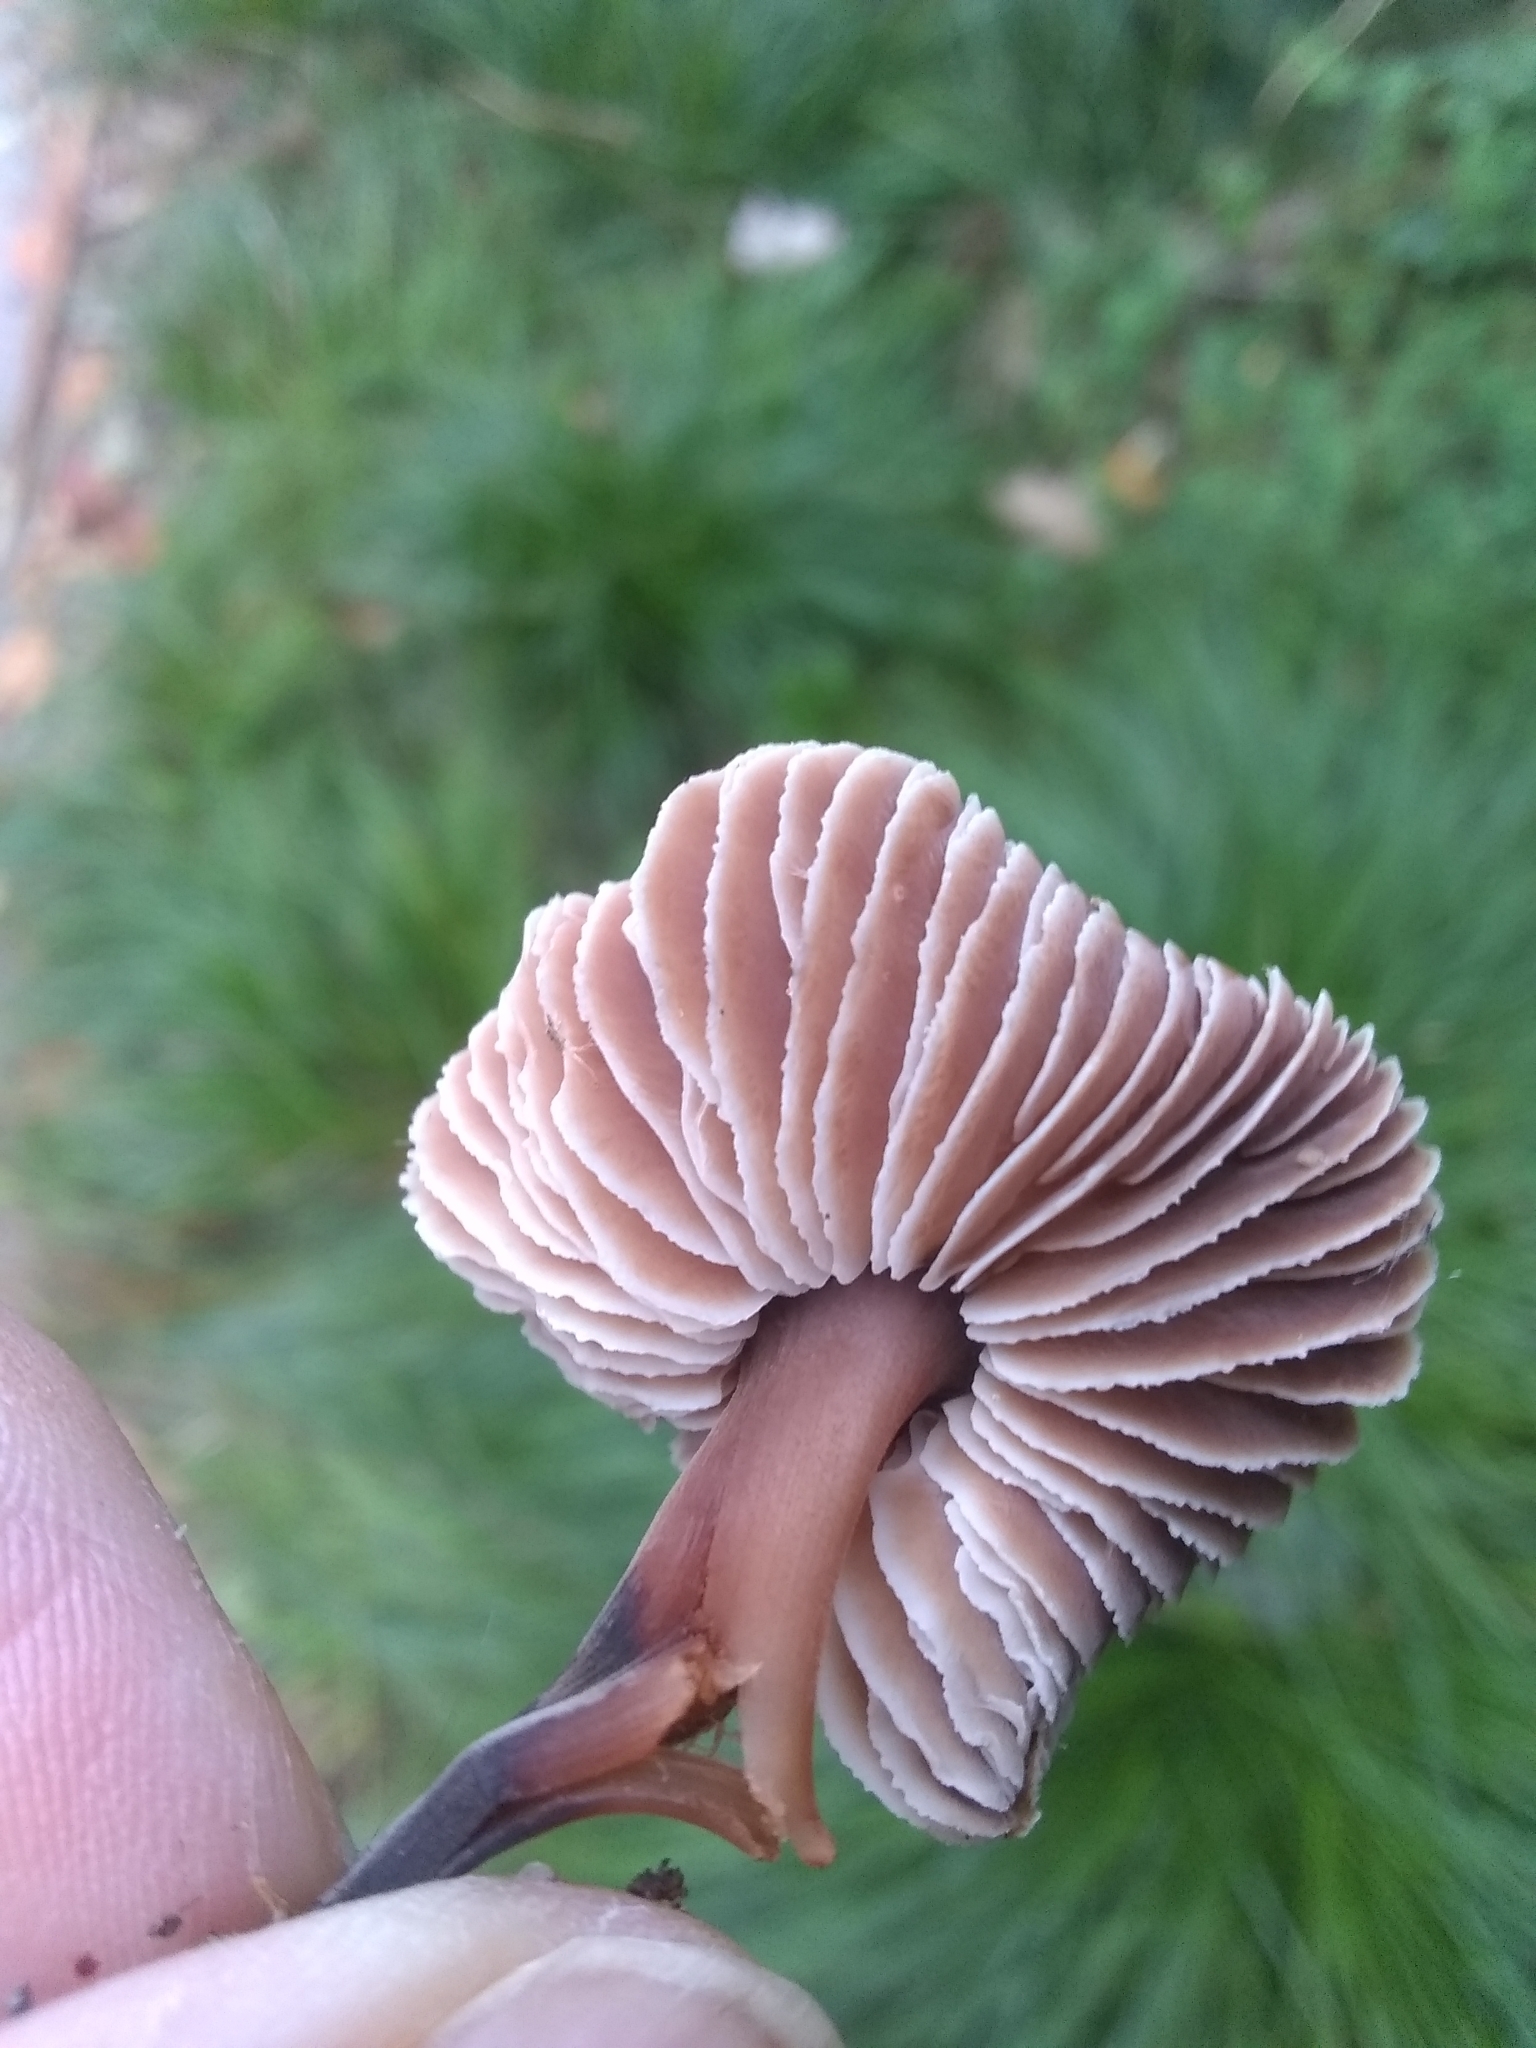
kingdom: Fungi
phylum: Basidiomycota
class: Agaricomycetes
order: Agaricales
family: Omphalotaceae
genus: Gymnopus
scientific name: Gymnopus brassicolens
